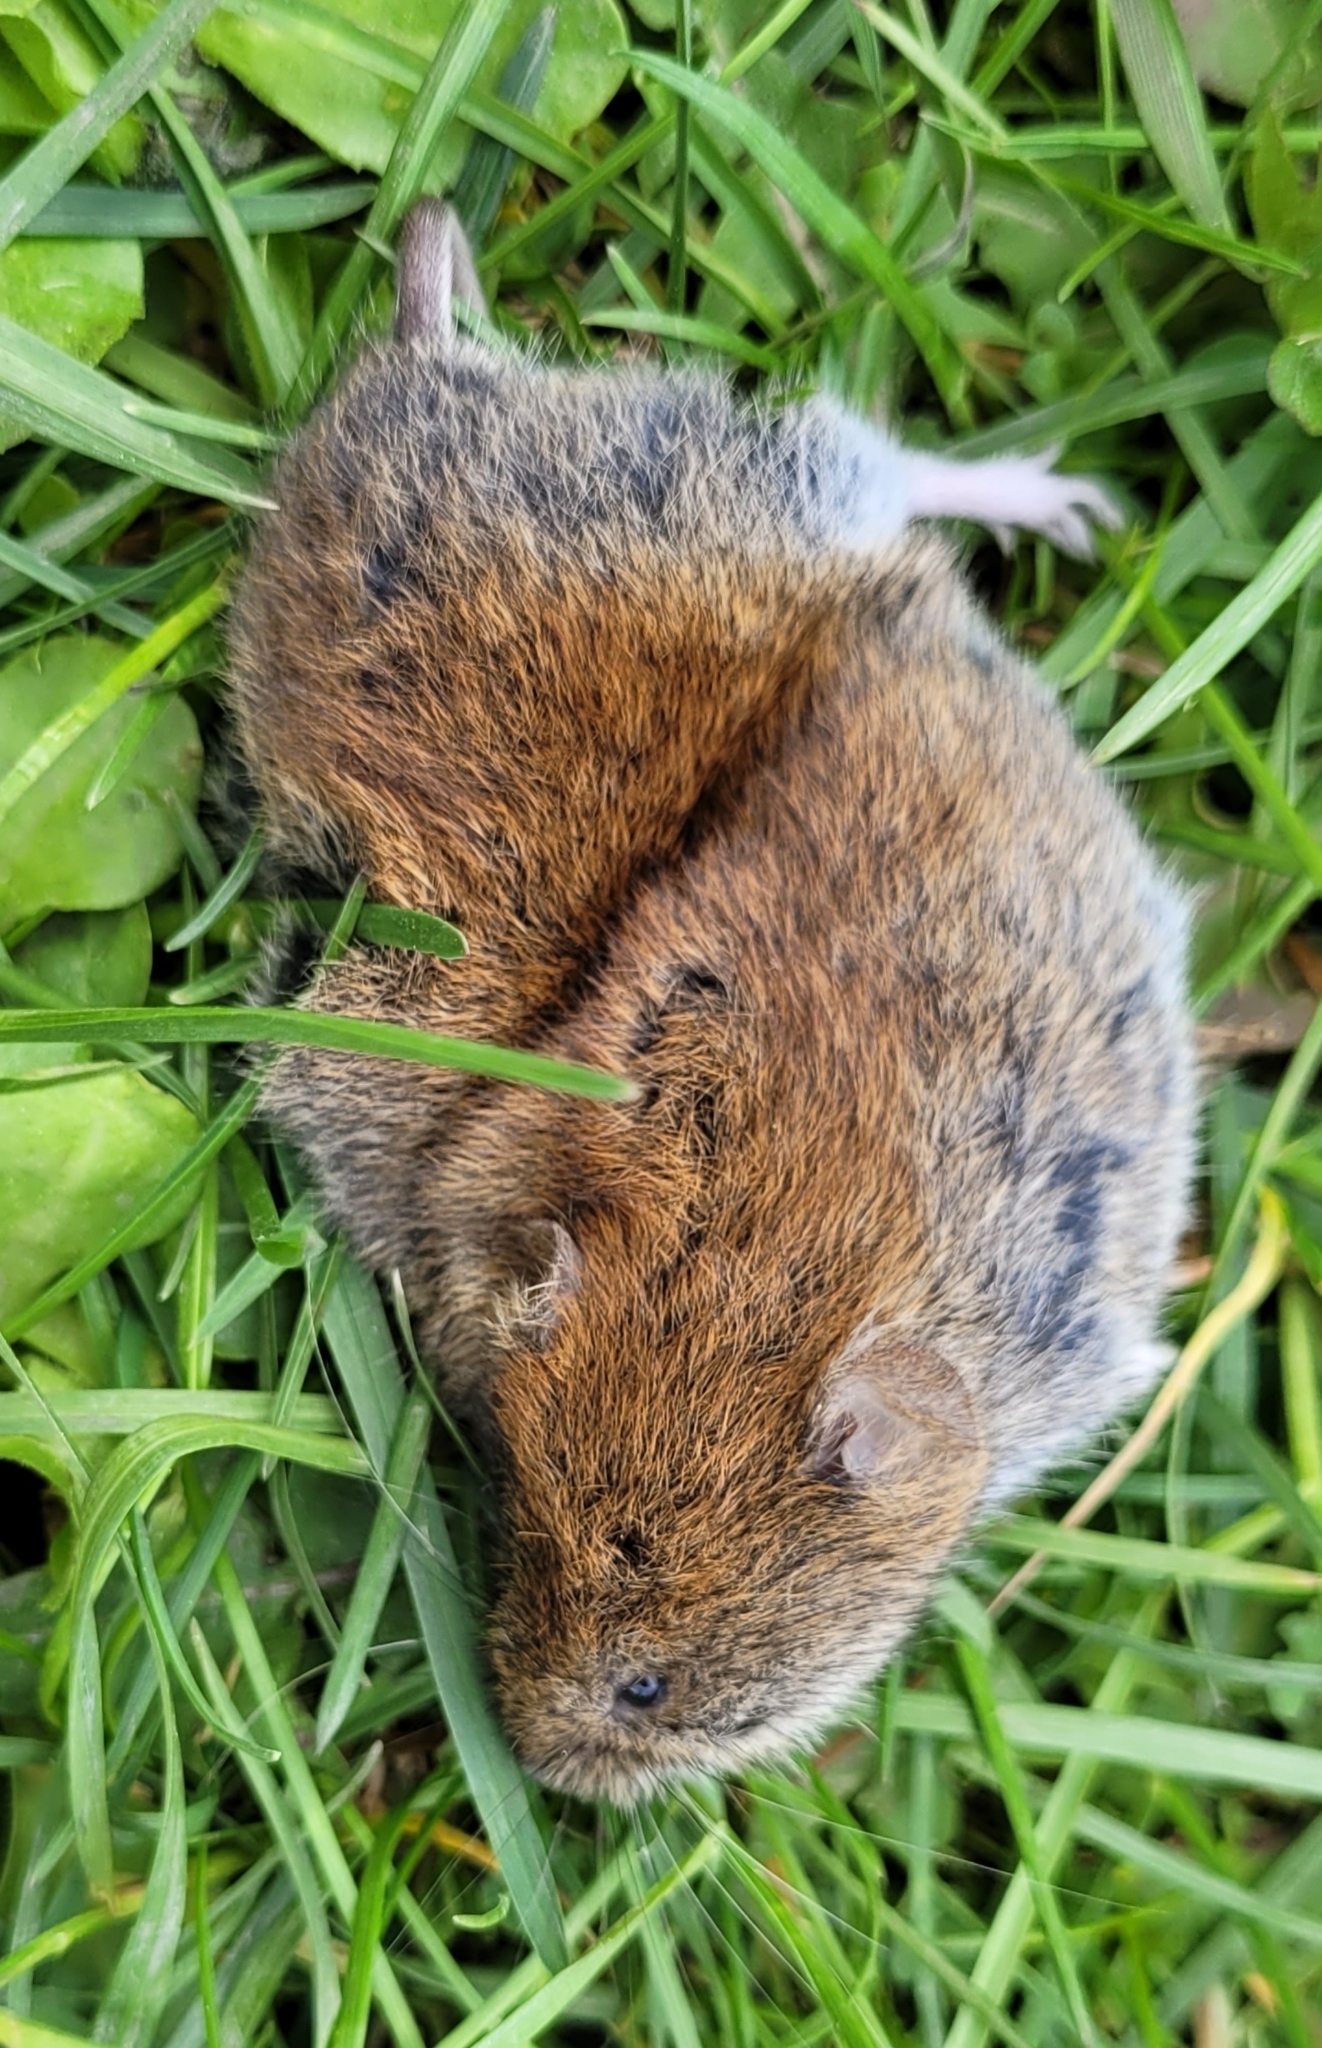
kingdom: Animalia
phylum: Chordata
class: Mammalia
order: Rodentia
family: Cricetidae
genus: Myodes
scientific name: Myodes glareolus
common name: Bank vole
